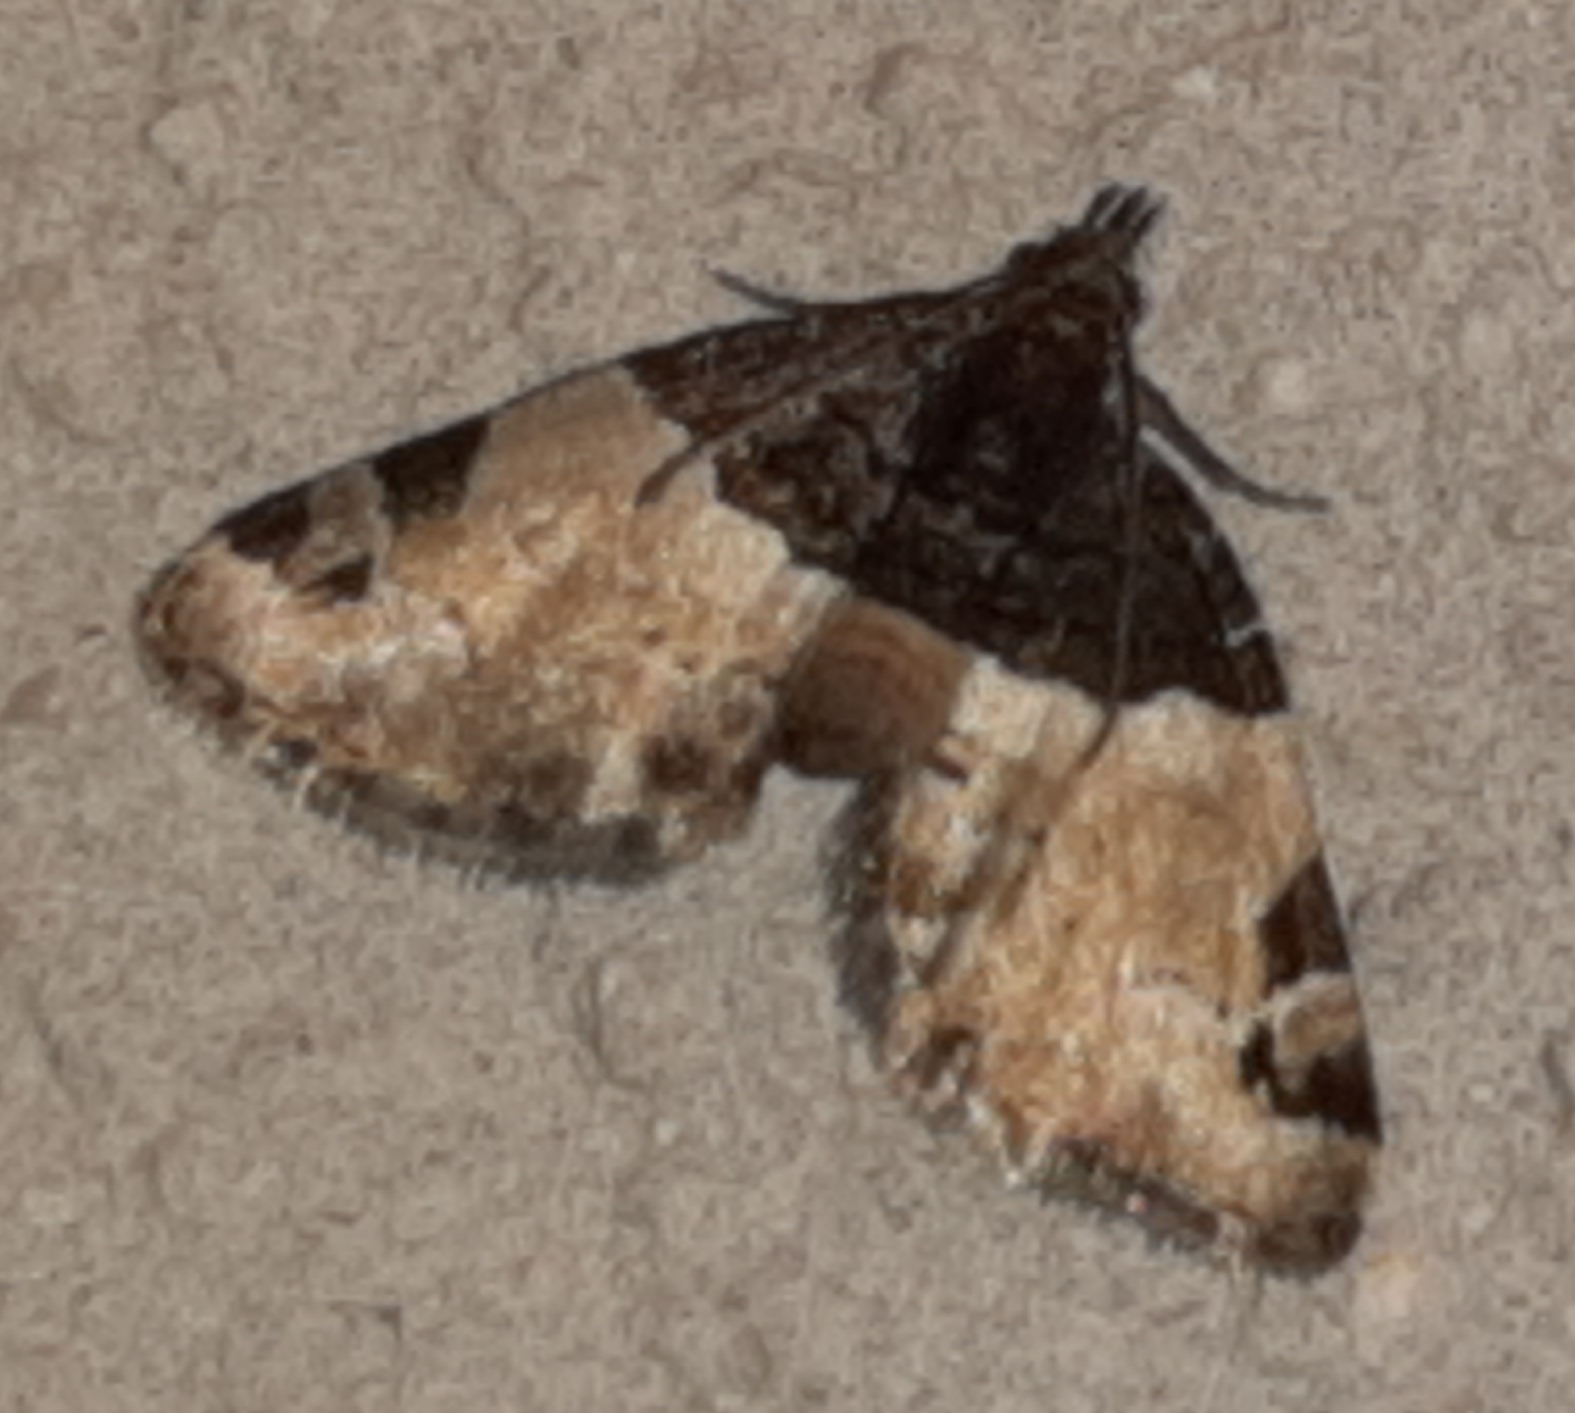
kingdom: Animalia
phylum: Arthropoda
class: Insecta
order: Lepidoptera
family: Geometridae
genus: Perizoma
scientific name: Perizoma basiplaga
